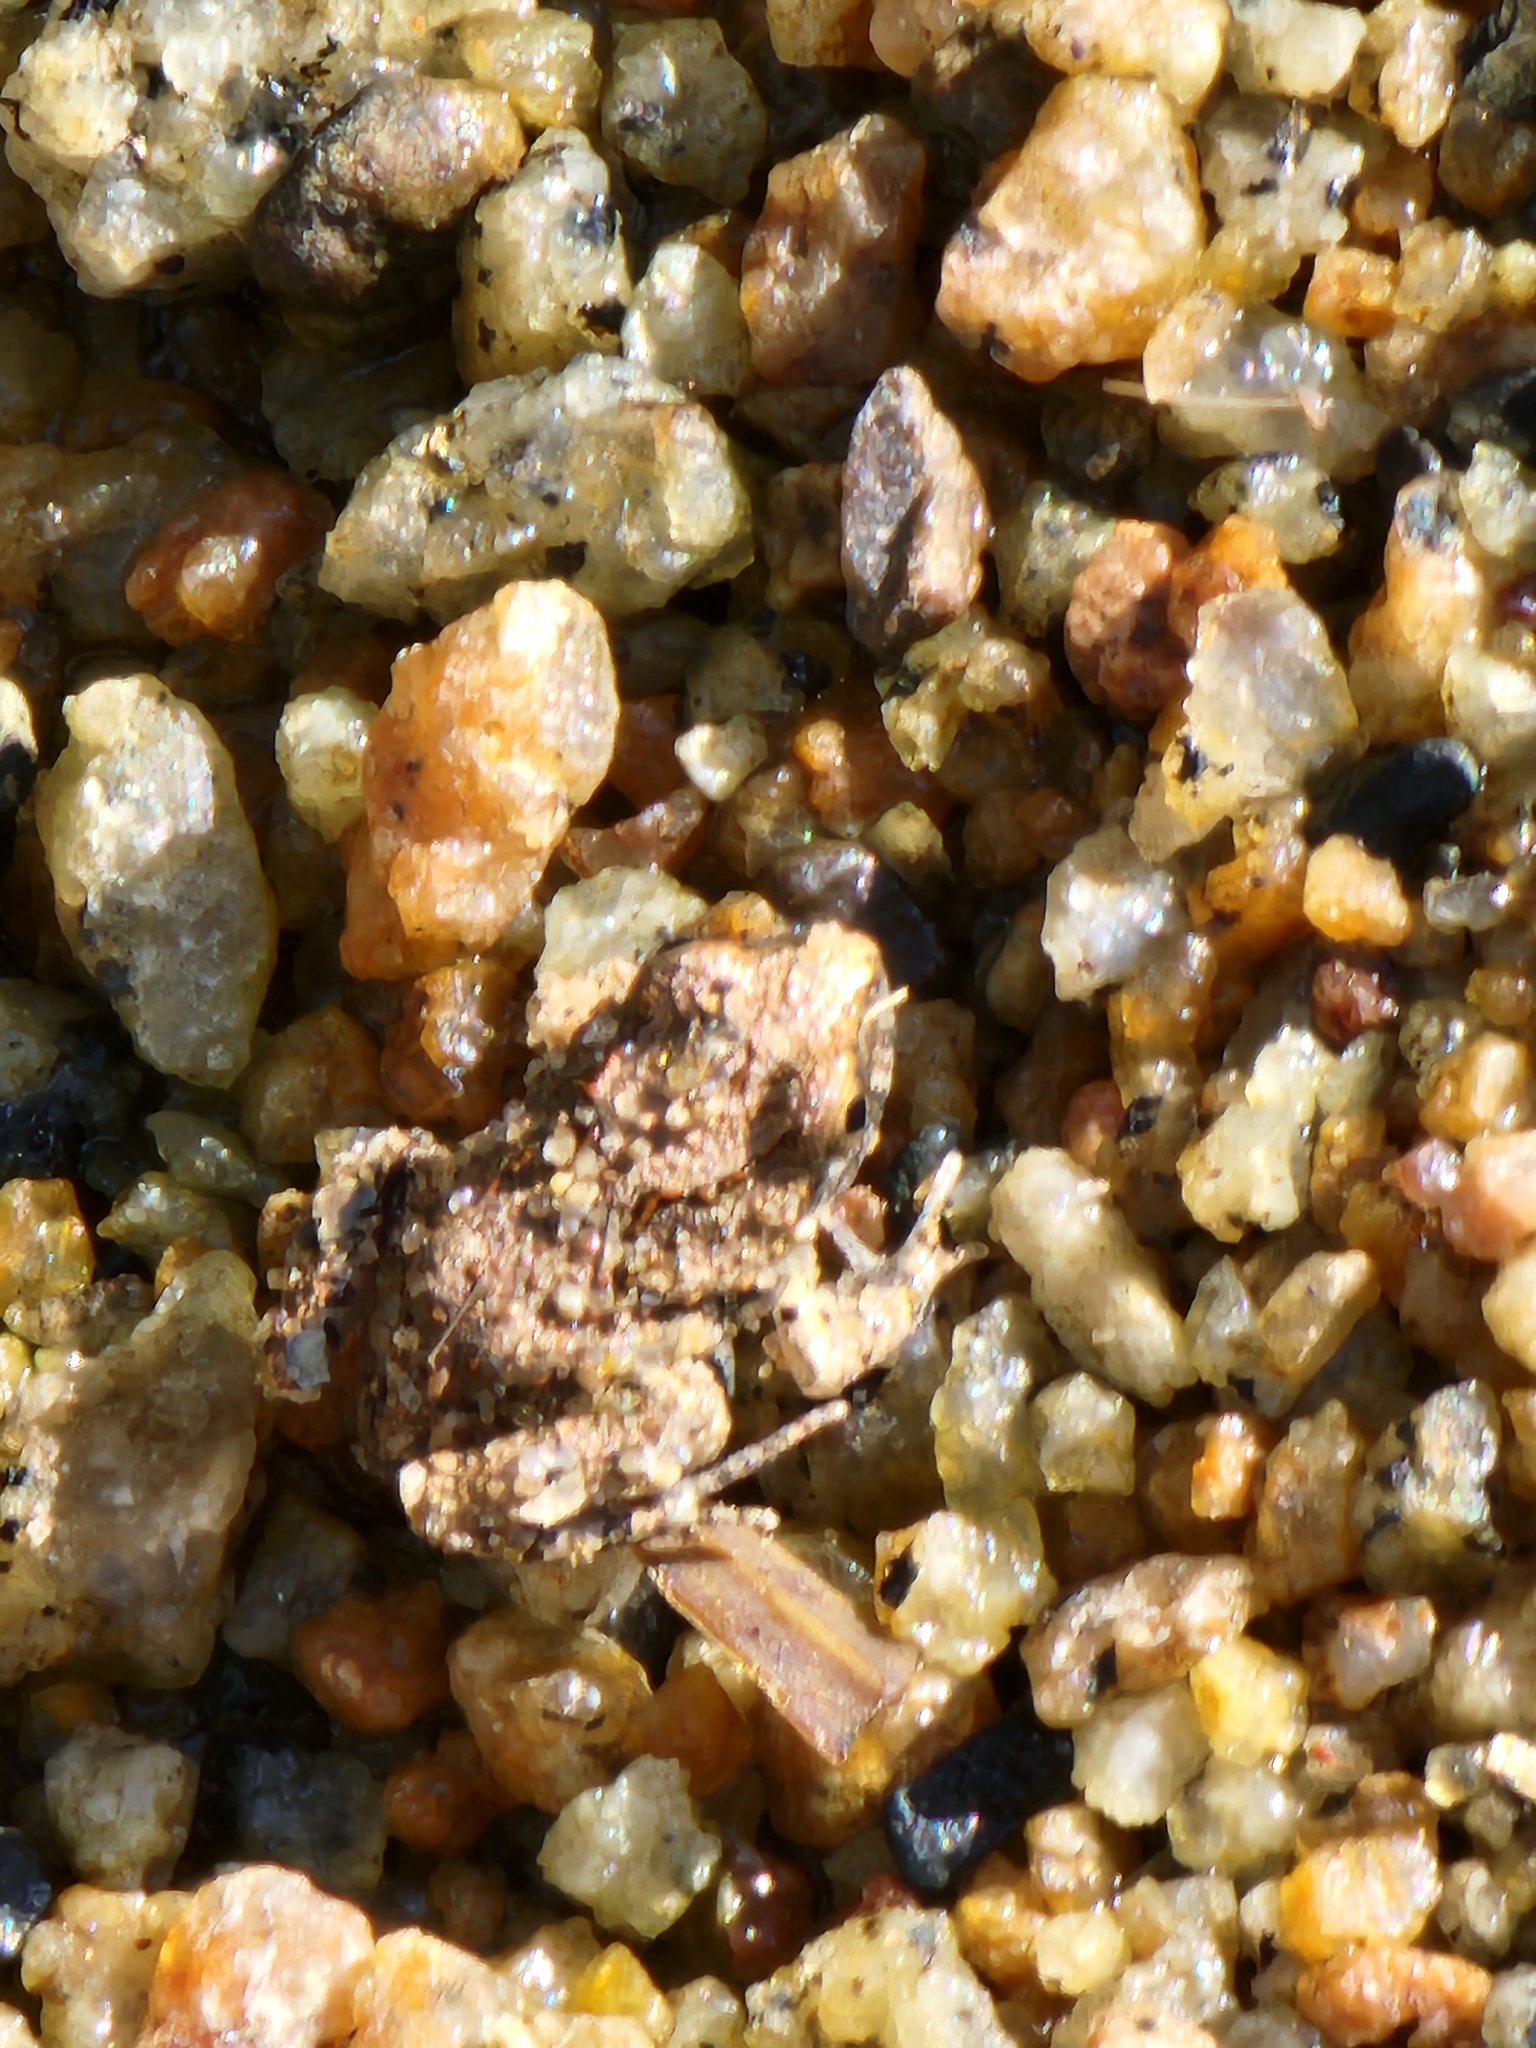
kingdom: Animalia
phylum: Chordata
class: Amphibia
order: Anura
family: Limnodynastidae
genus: Platyplectrum
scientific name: Platyplectrum ornatum
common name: Ornate burrowing frog
